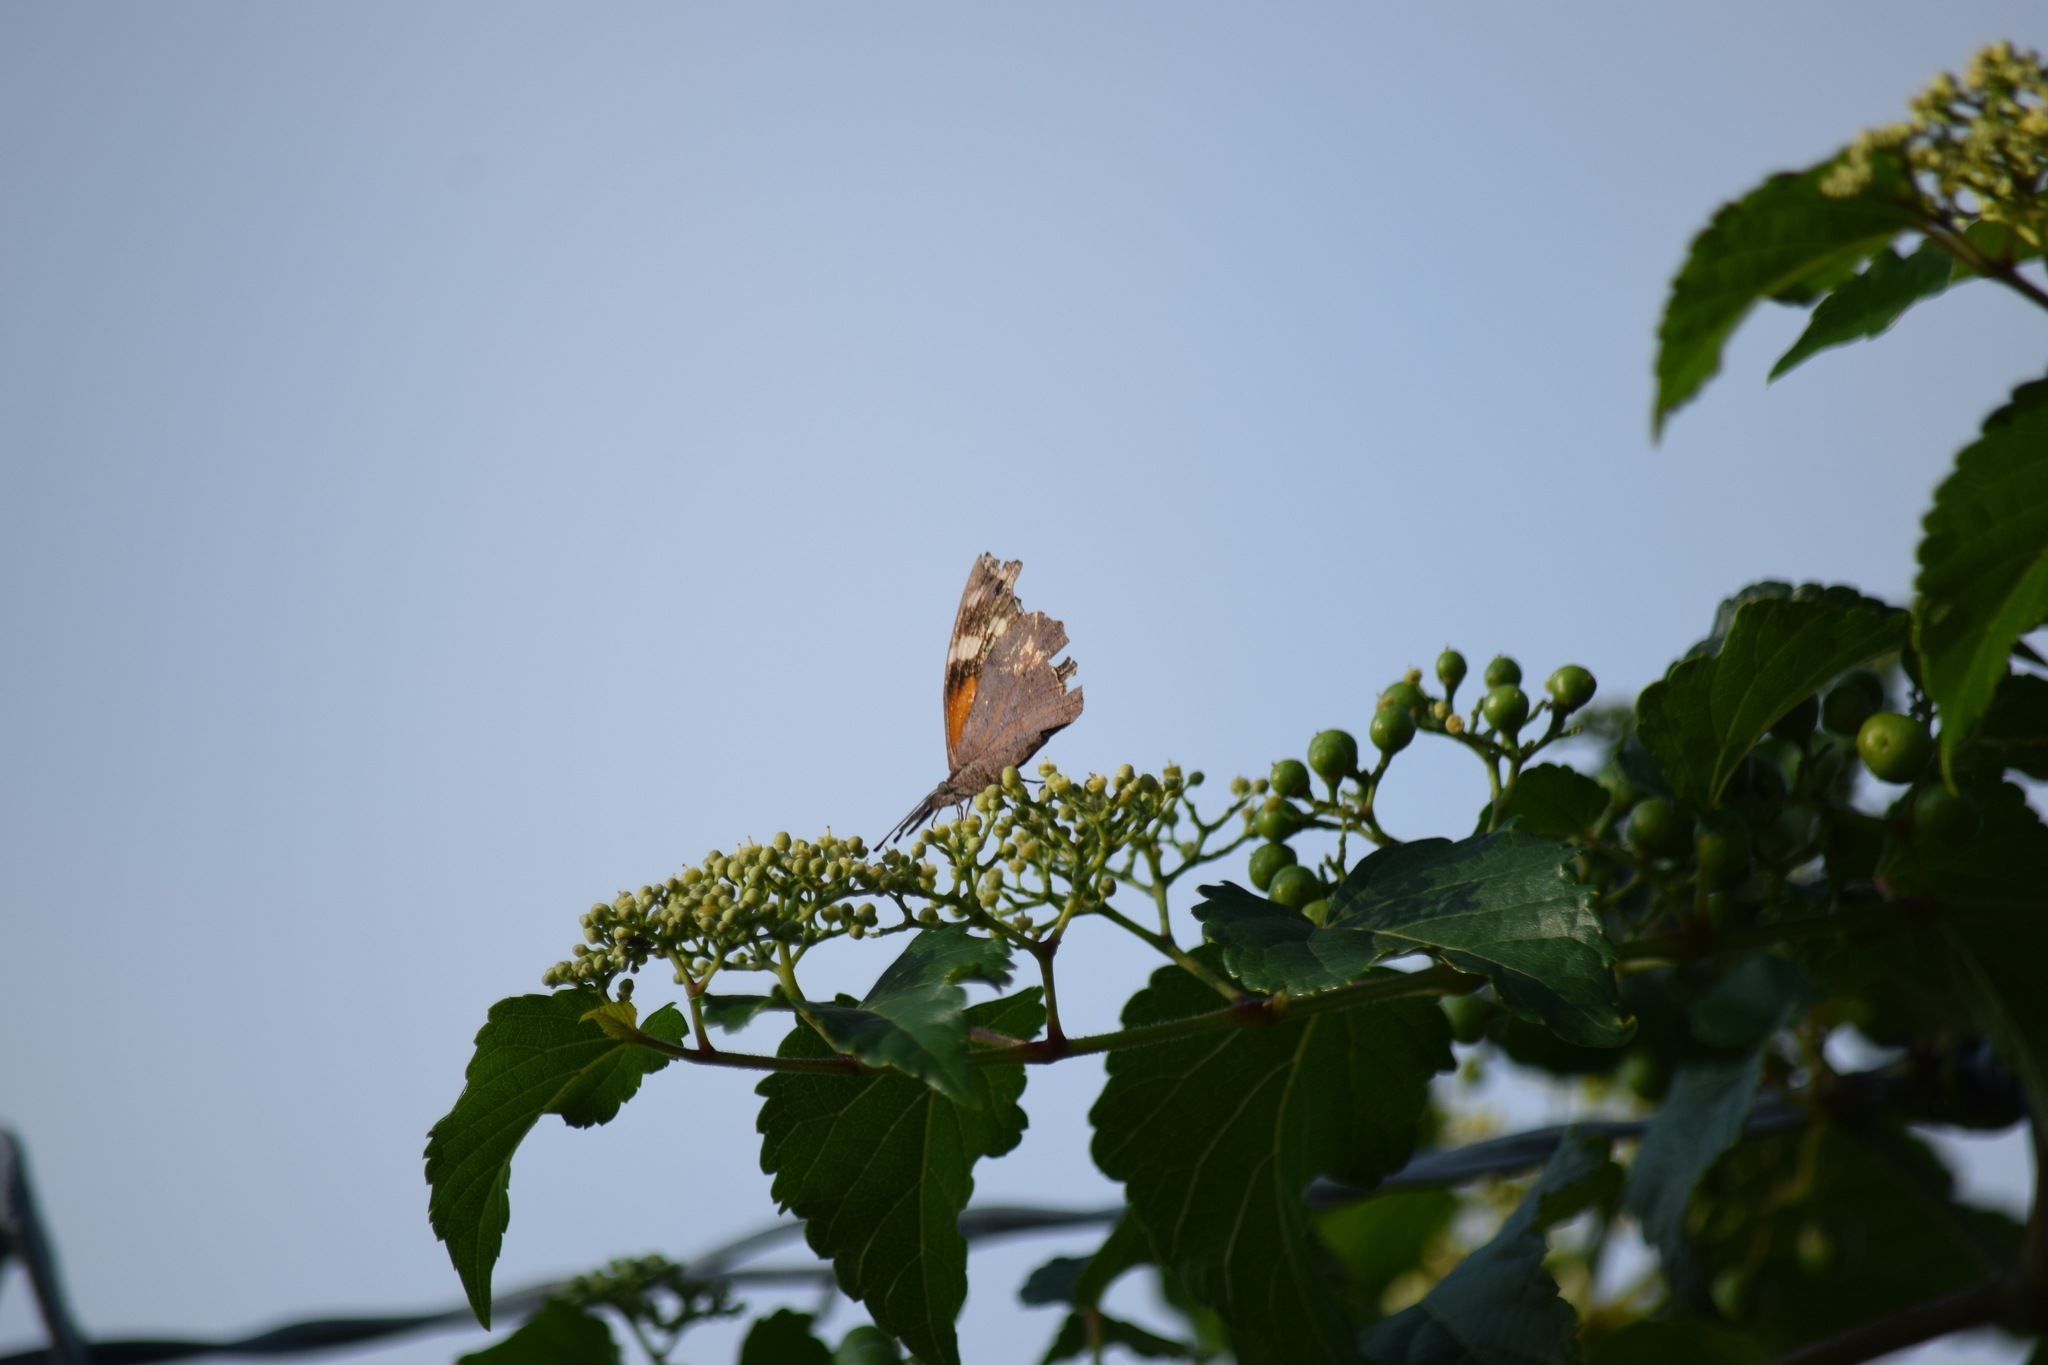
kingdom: Animalia
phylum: Arthropoda
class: Insecta
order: Lepidoptera
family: Nymphalidae
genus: Libytheana
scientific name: Libytheana carinenta
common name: American snout
